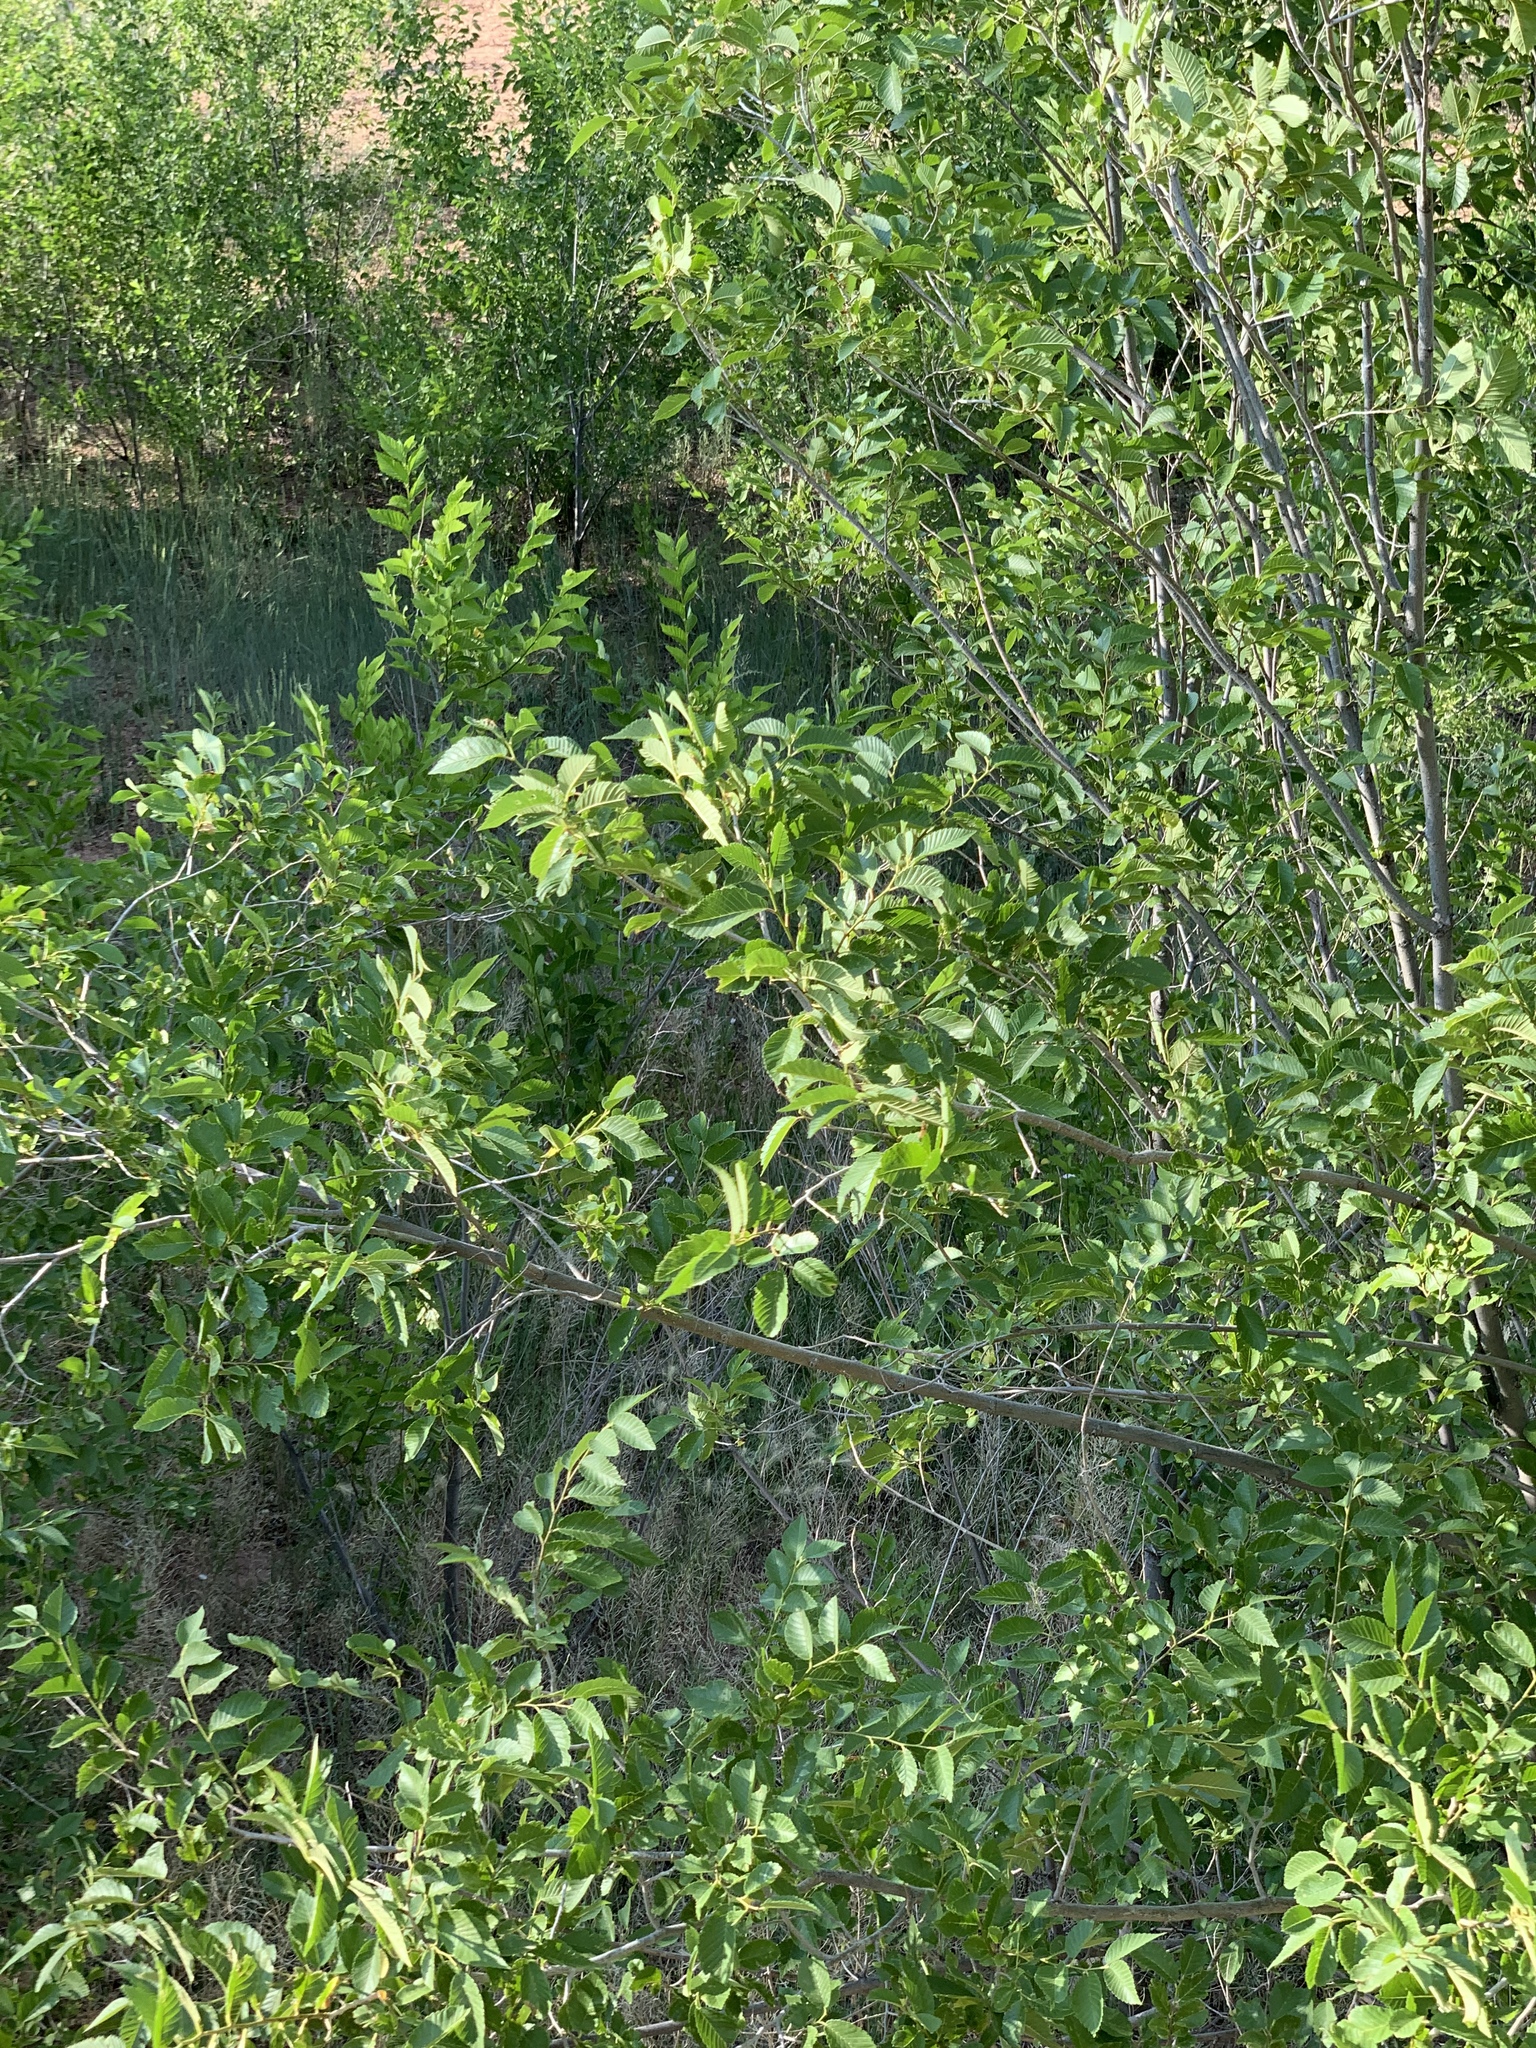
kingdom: Plantae
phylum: Tracheophyta
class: Magnoliopsida
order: Rosales
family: Ulmaceae
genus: Ulmus
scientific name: Ulmus pumila
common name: Siberian elm
